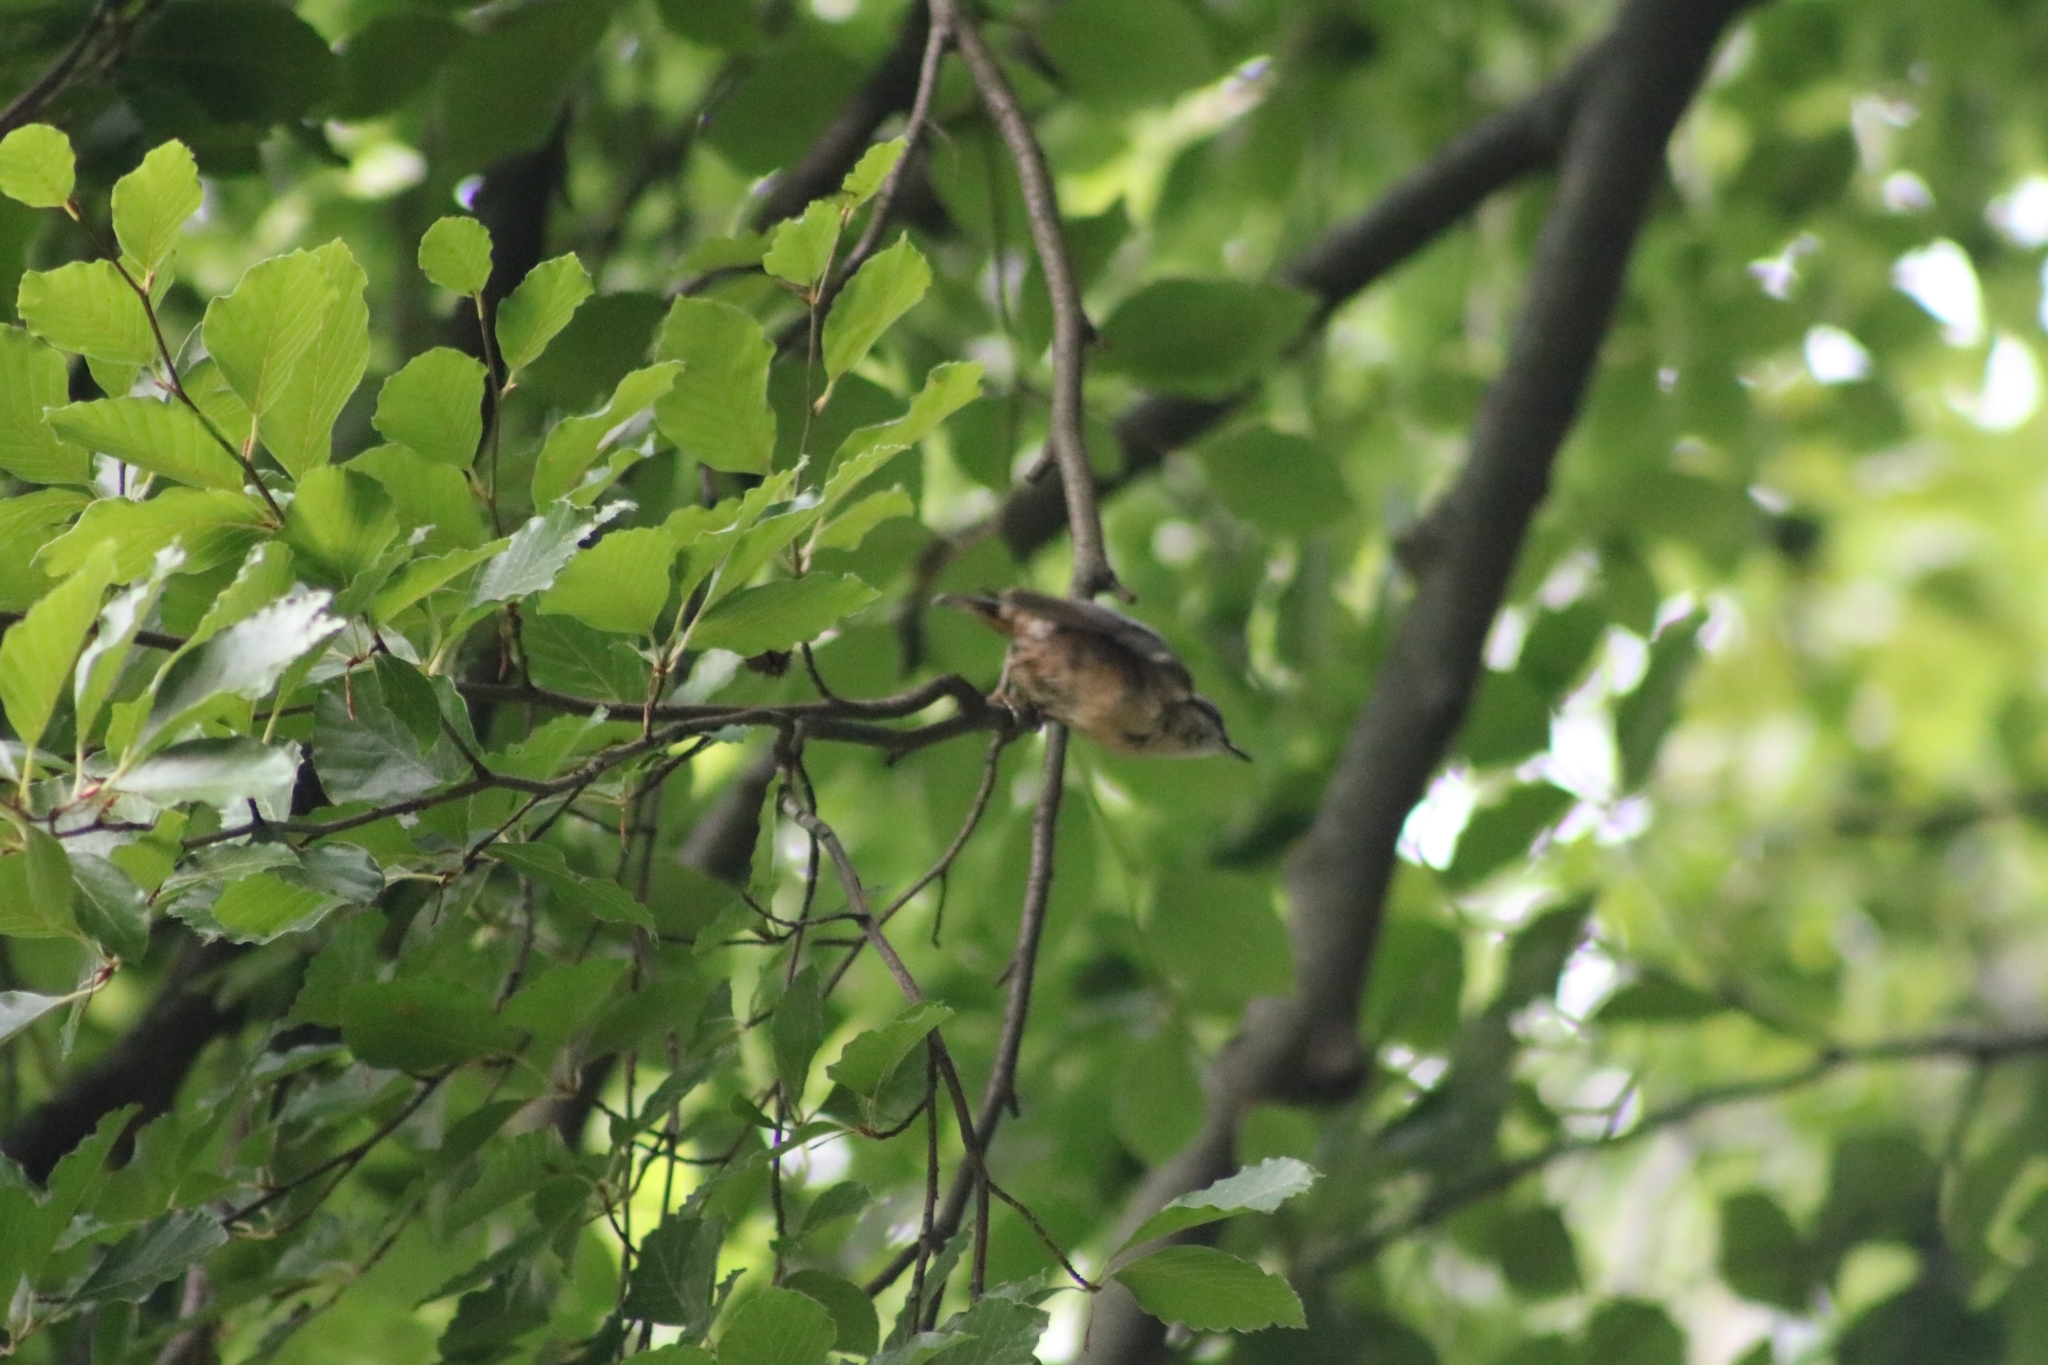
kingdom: Animalia
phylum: Chordata
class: Aves
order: Passeriformes
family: Sittidae
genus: Sitta
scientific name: Sitta europaea
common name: Eurasian nuthatch
